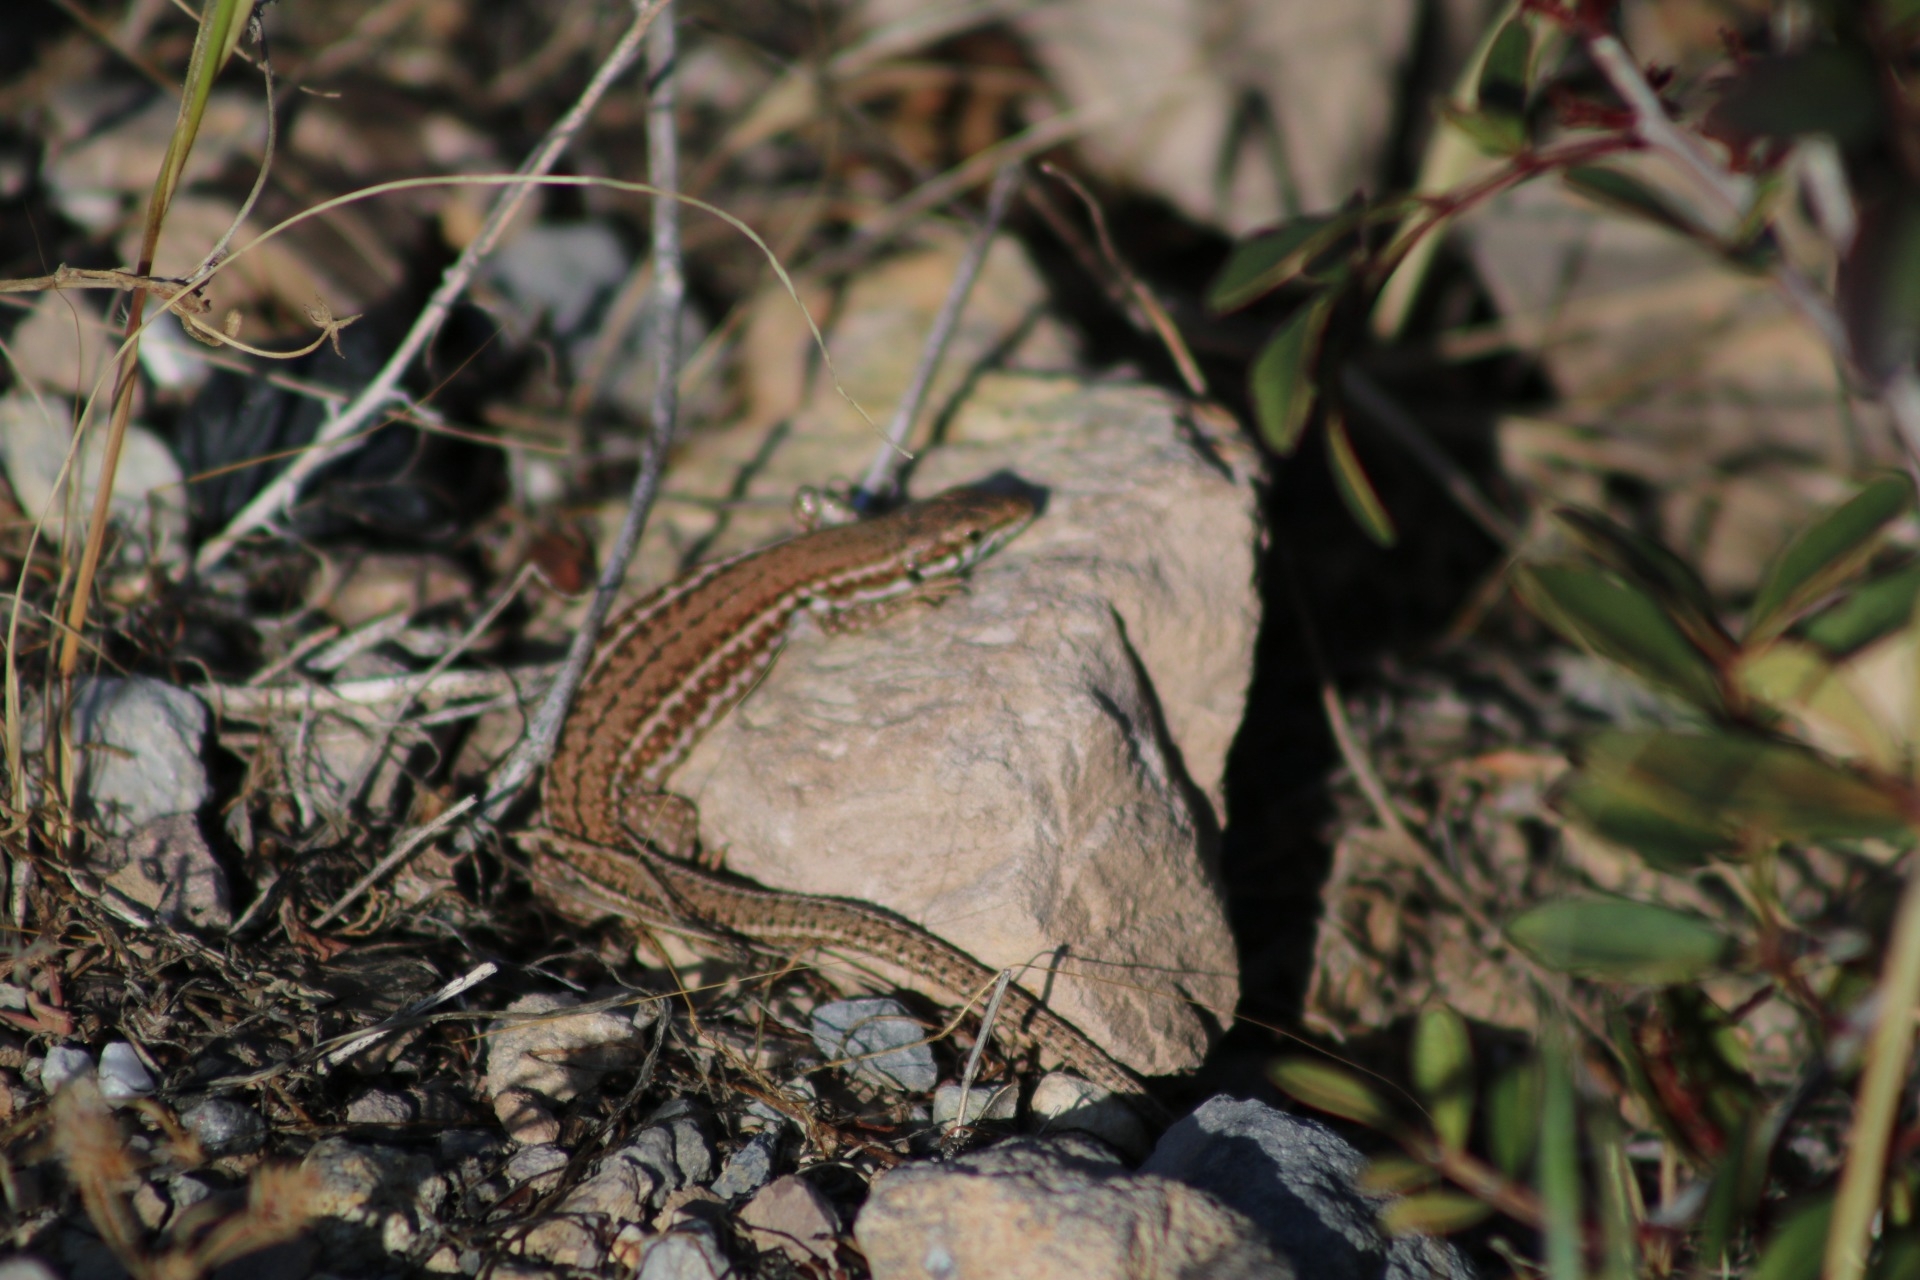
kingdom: Animalia
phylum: Chordata
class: Squamata
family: Lacertidae
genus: Podarcis
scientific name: Podarcis
